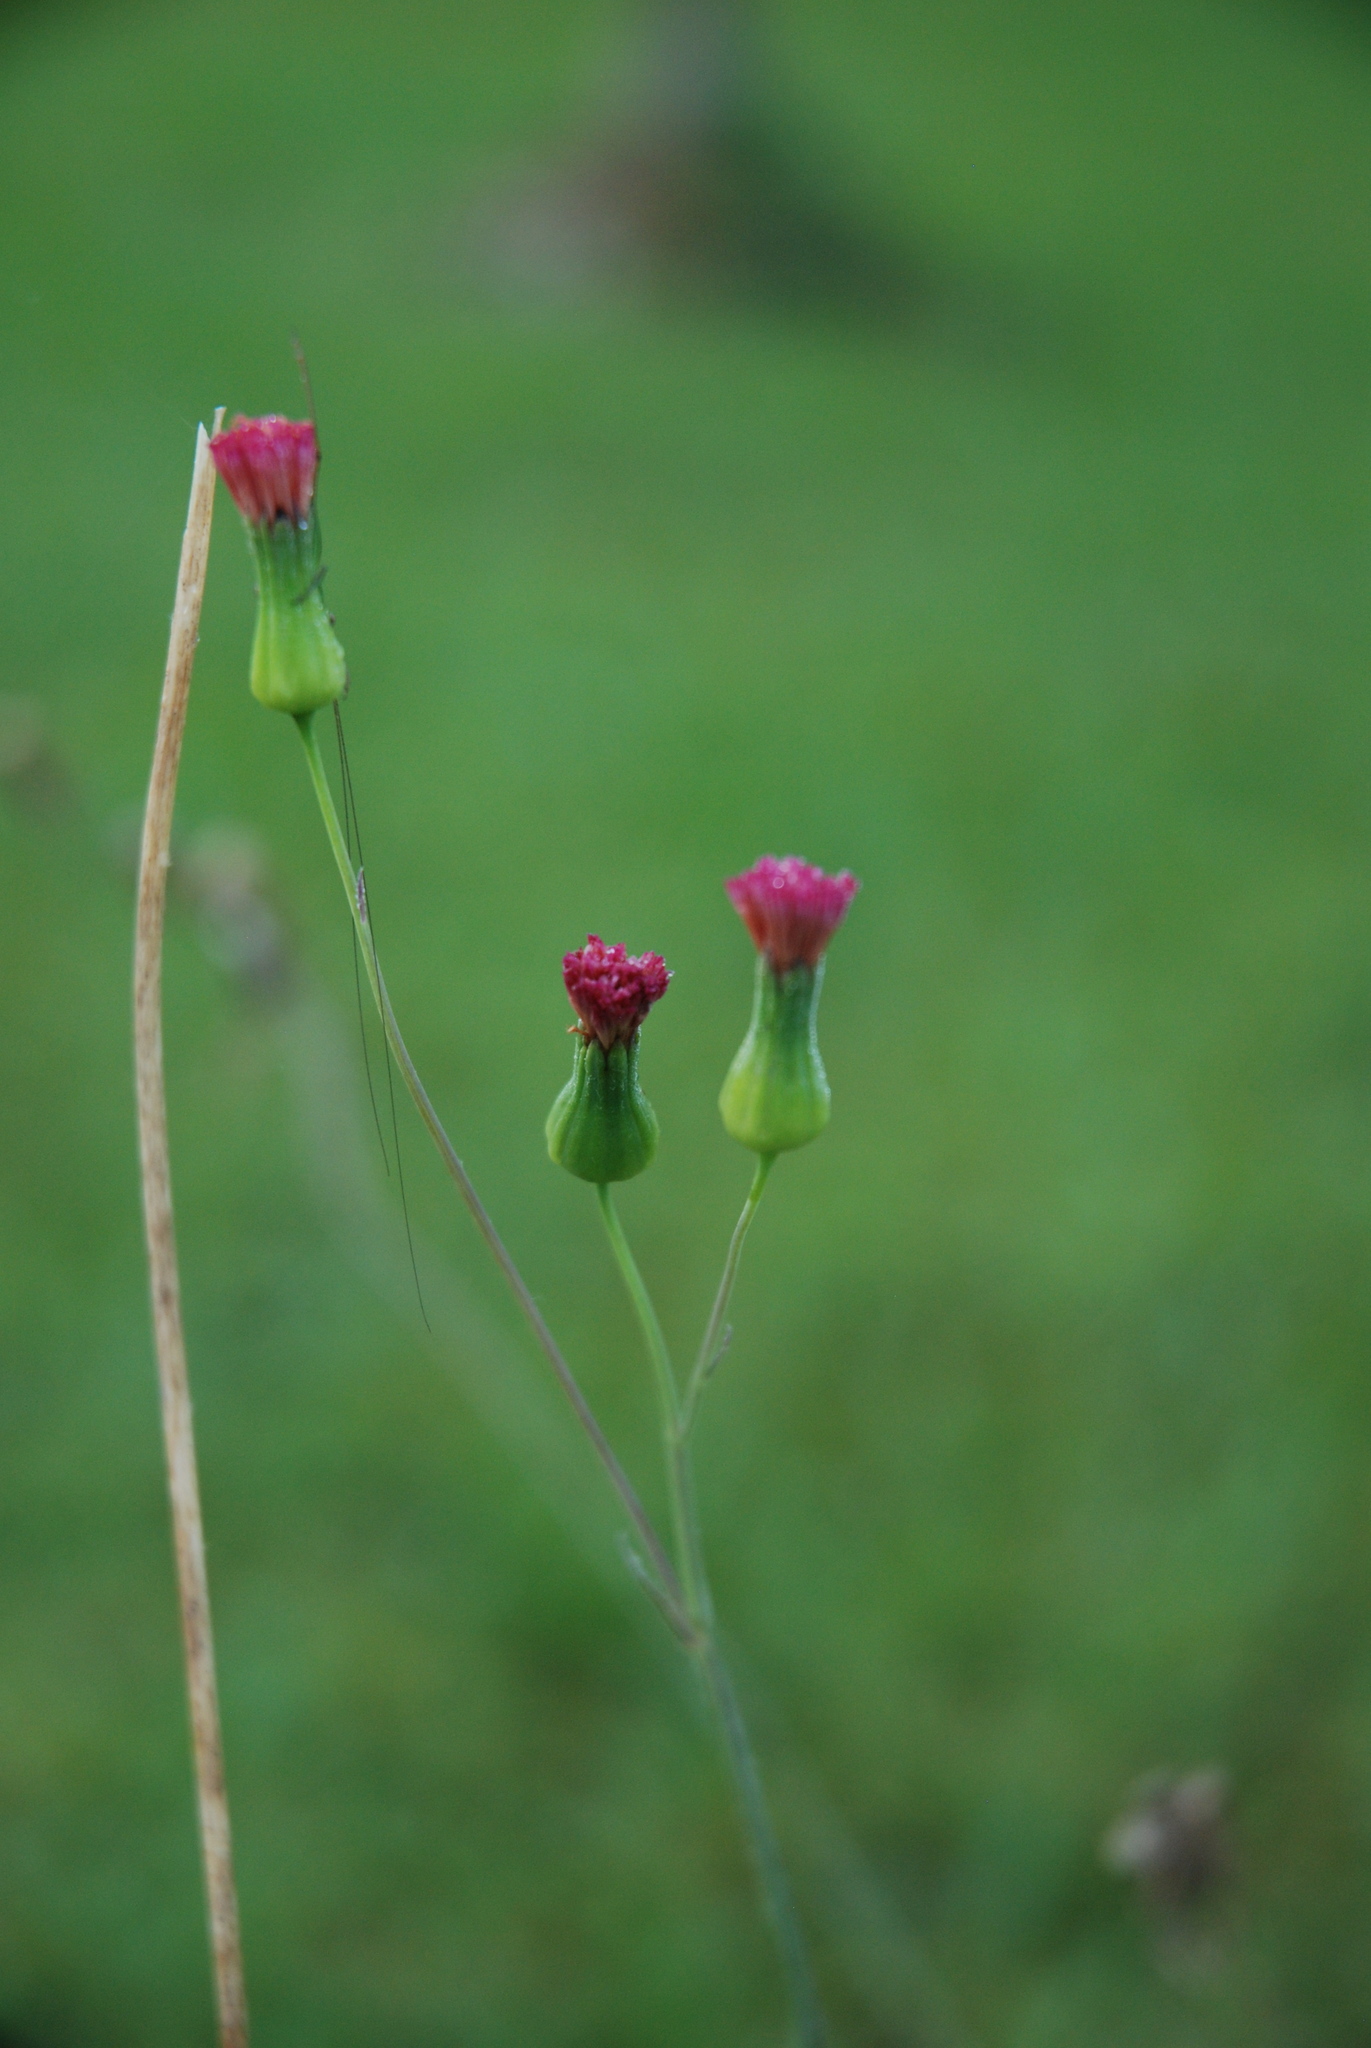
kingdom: Plantae
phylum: Tracheophyta
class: Magnoliopsida
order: Asterales
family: Asteraceae
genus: Emilia
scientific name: Emilia sonchifolia
